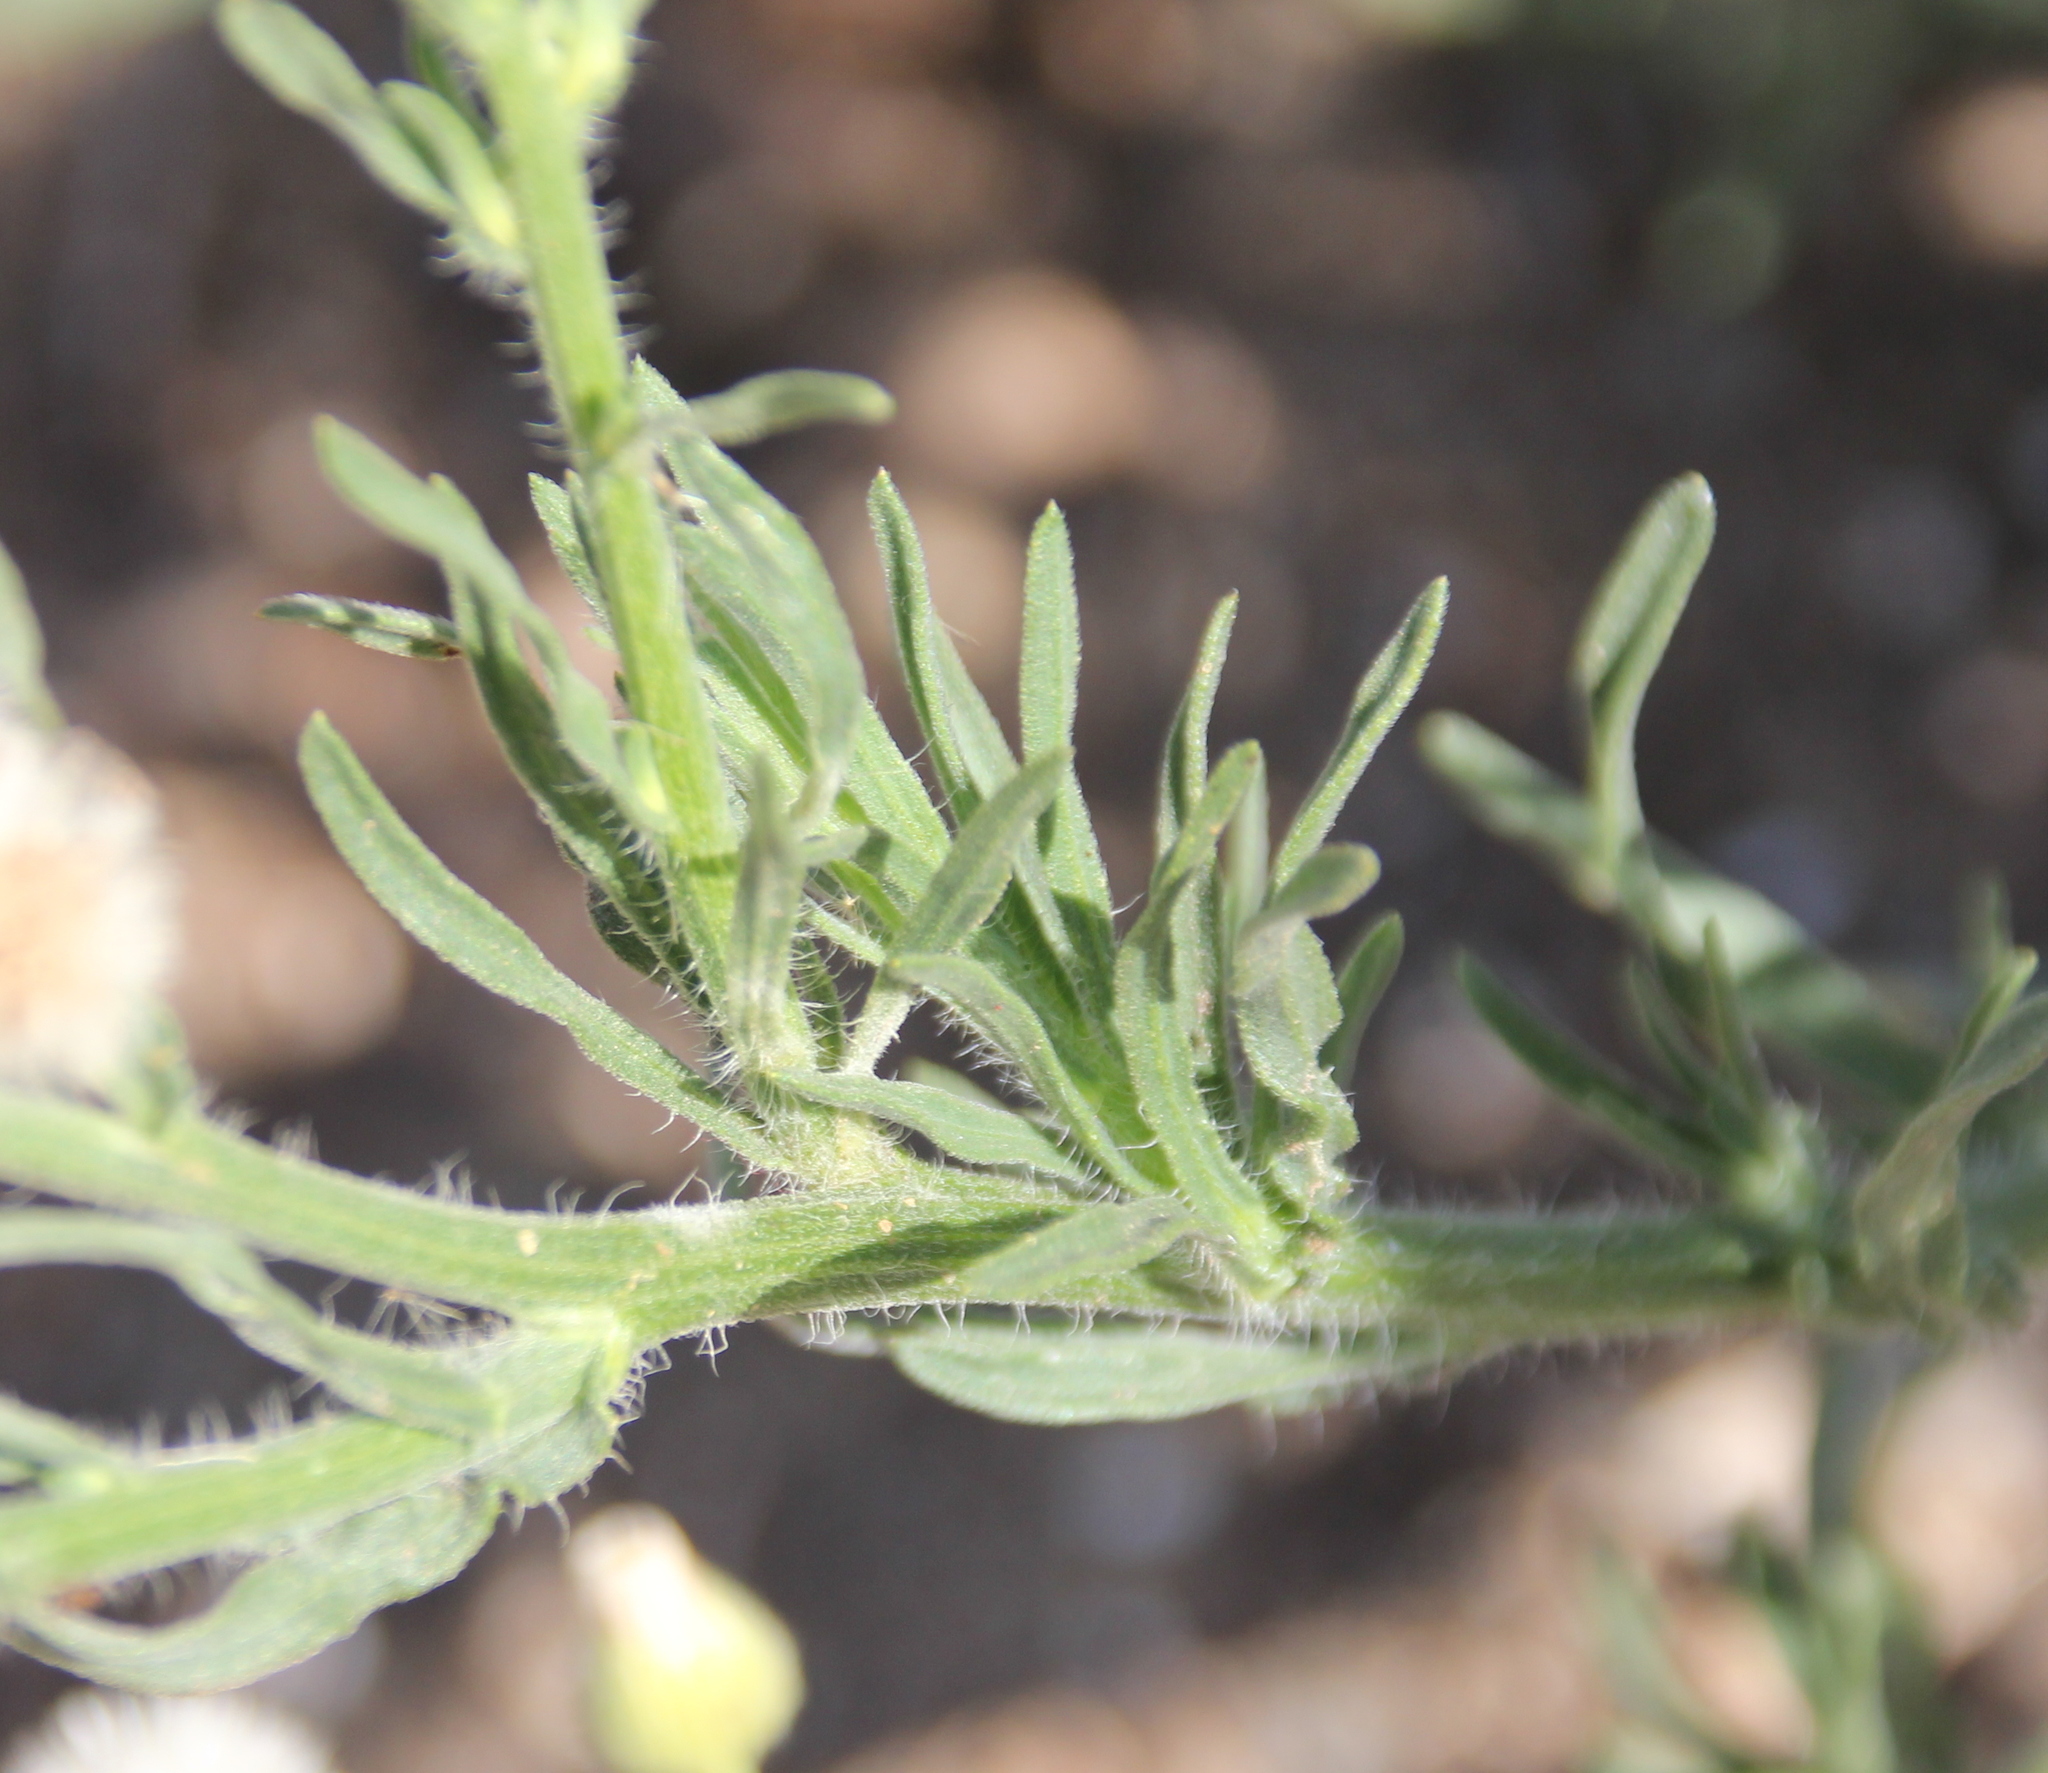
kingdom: Plantae
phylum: Tracheophyta
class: Magnoliopsida
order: Asterales
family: Asteraceae
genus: Erigeron
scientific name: Erigeron bonariensis
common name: Argentine fleabane
